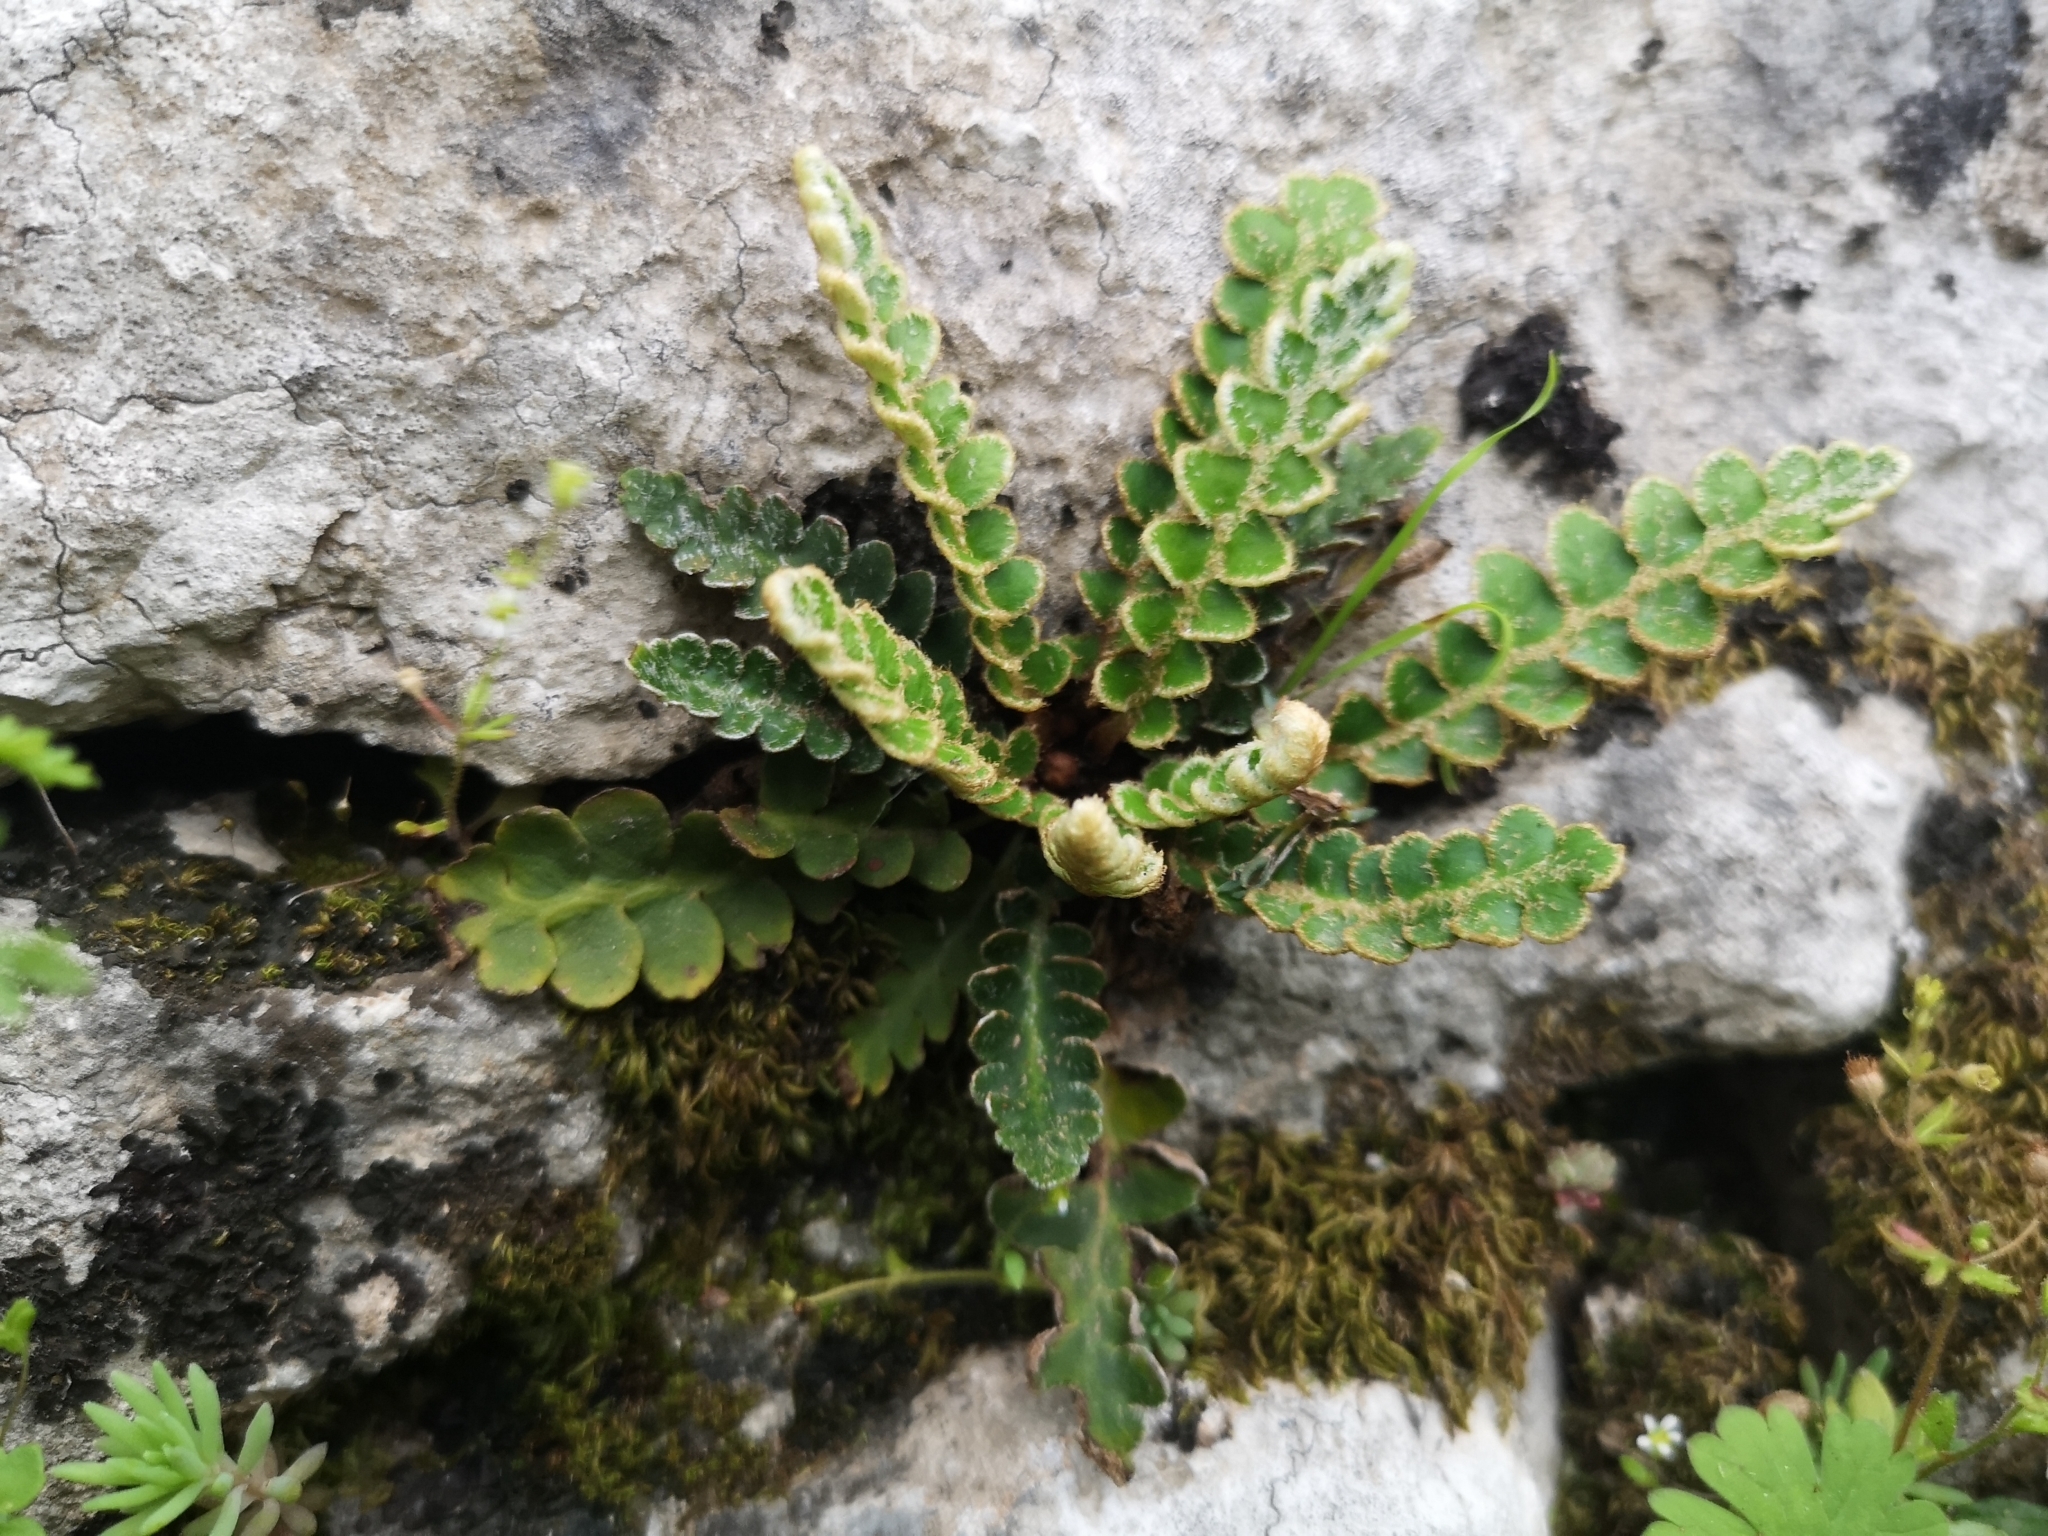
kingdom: Plantae
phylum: Tracheophyta
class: Polypodiopsida
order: Polypodiales
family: Aspleniaceae
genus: Asplenium
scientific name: Asplenium ceterach
